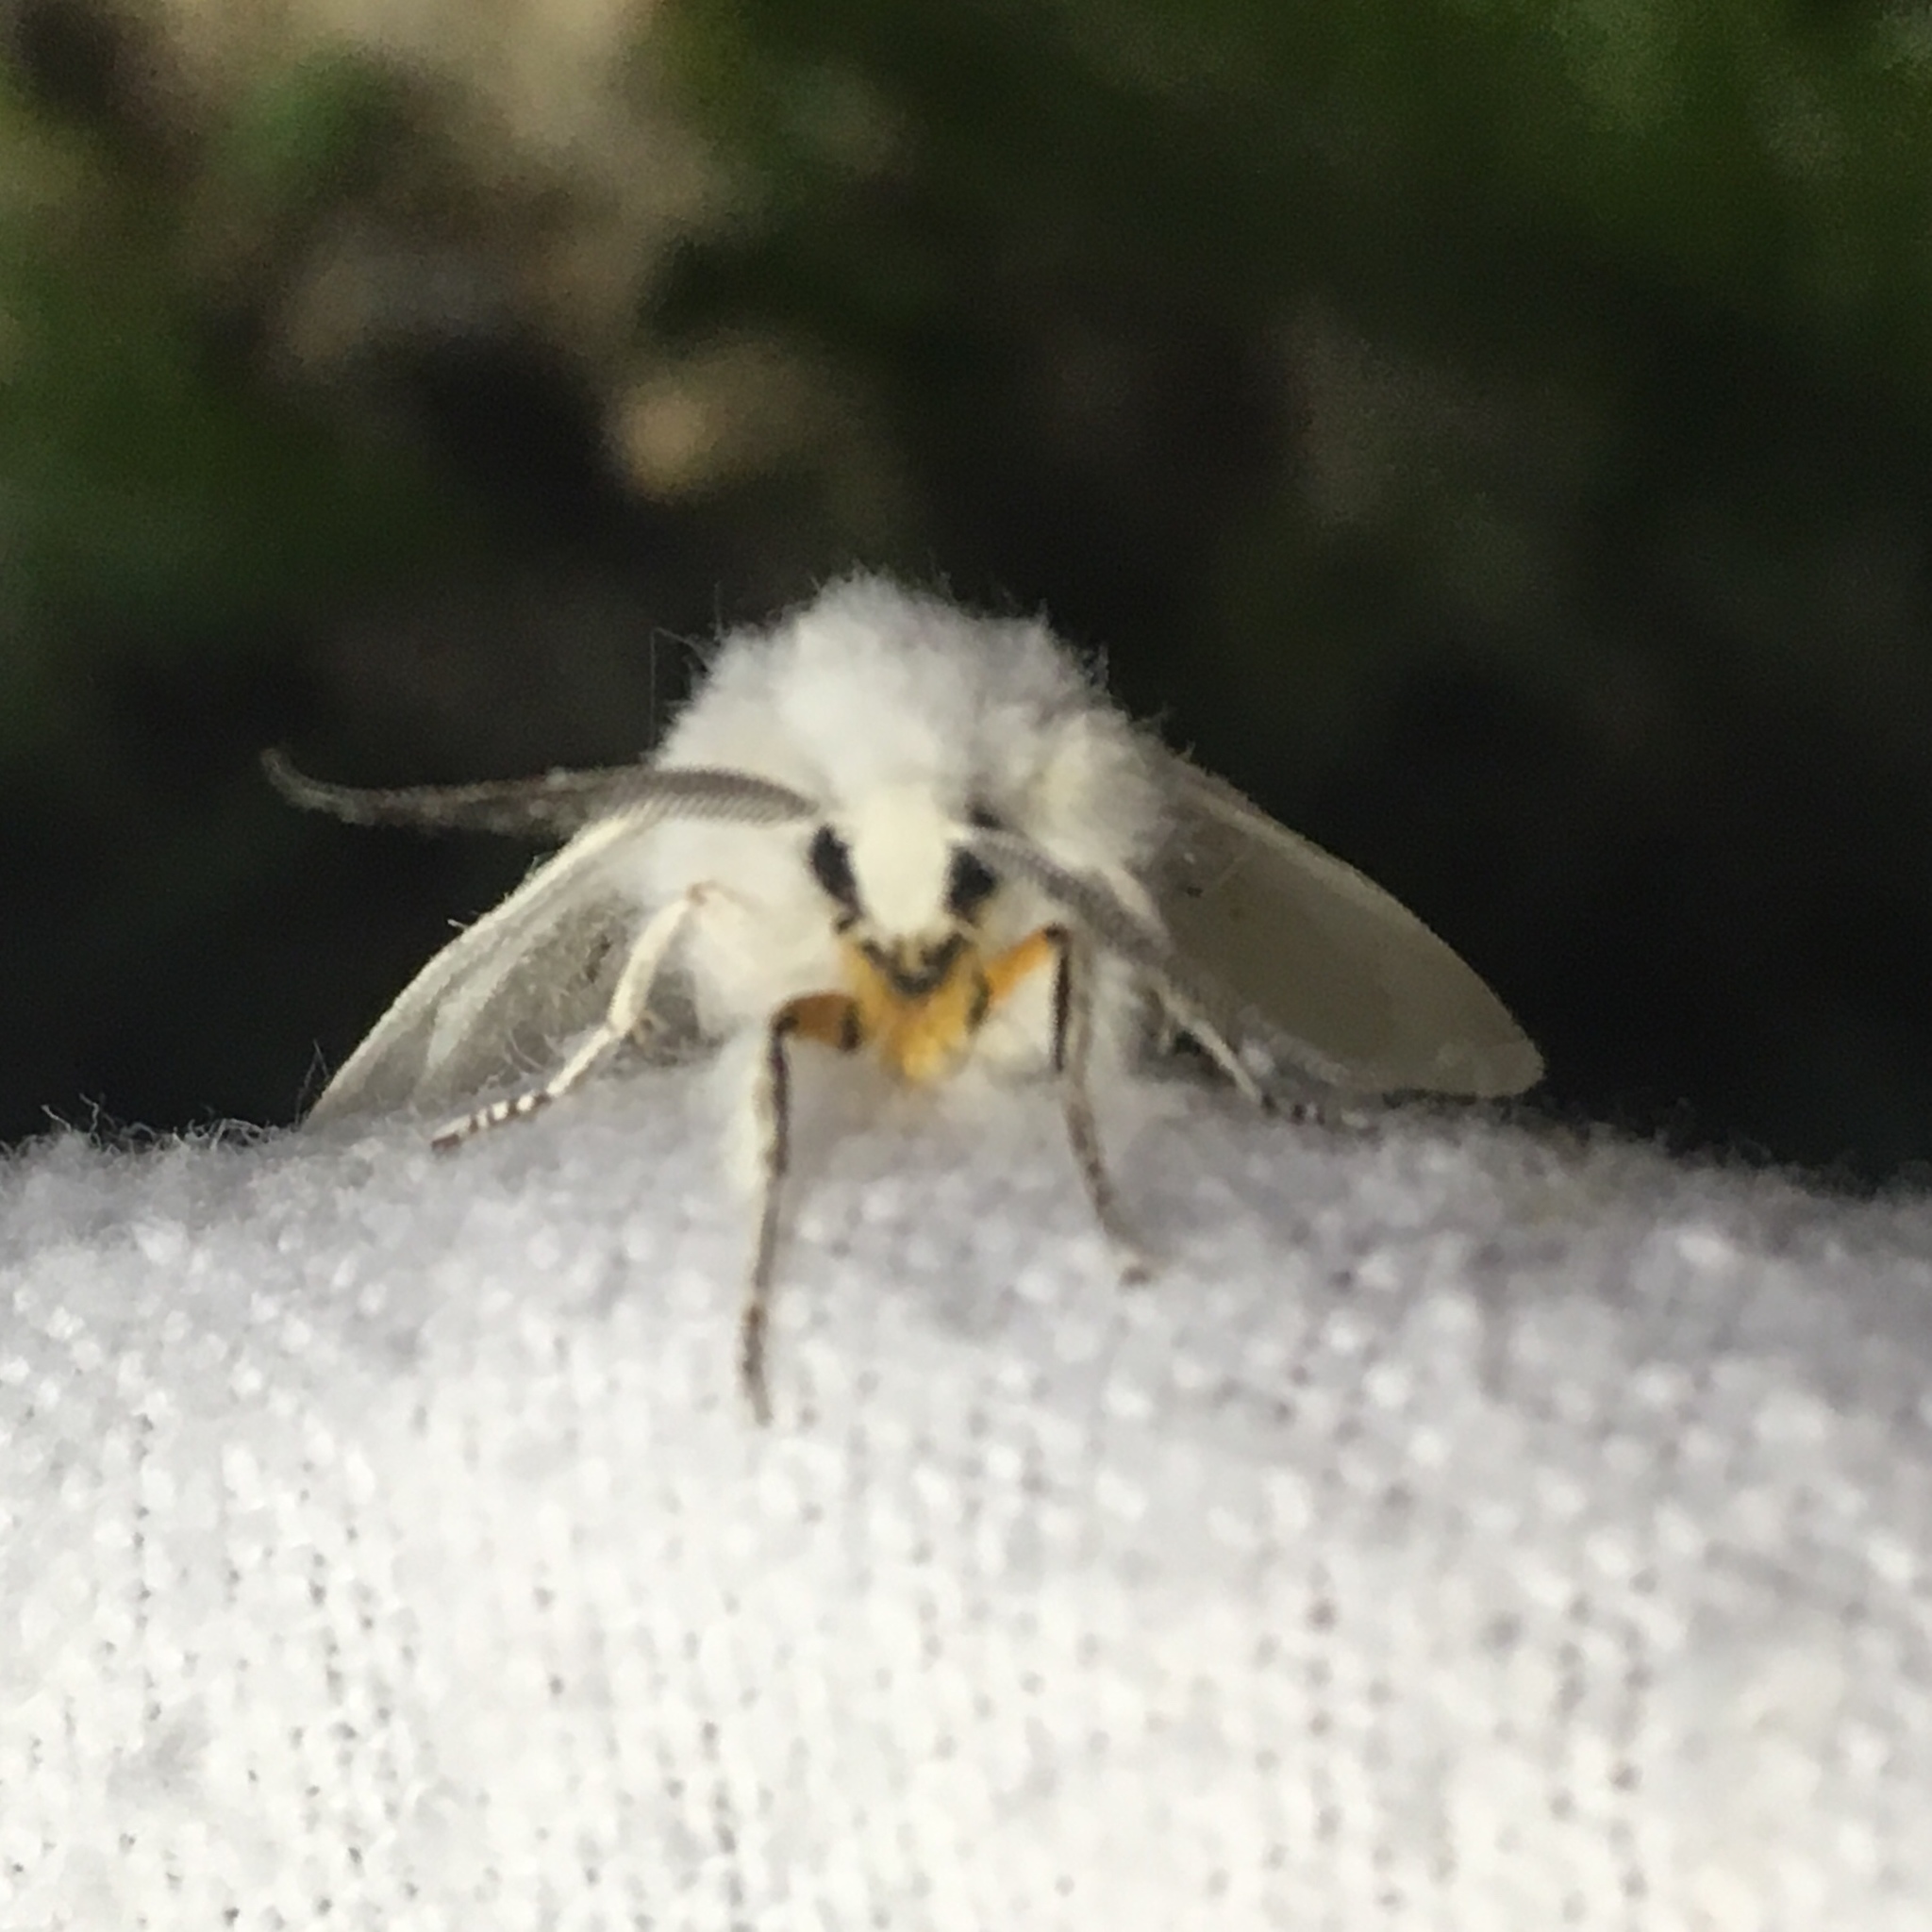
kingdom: Animalia
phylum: Arthropoda
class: Insecta
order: Lepidoptera
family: Erebidae
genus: Spilosoma
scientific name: Spilosoma virginica
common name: Virginia tiger moth
